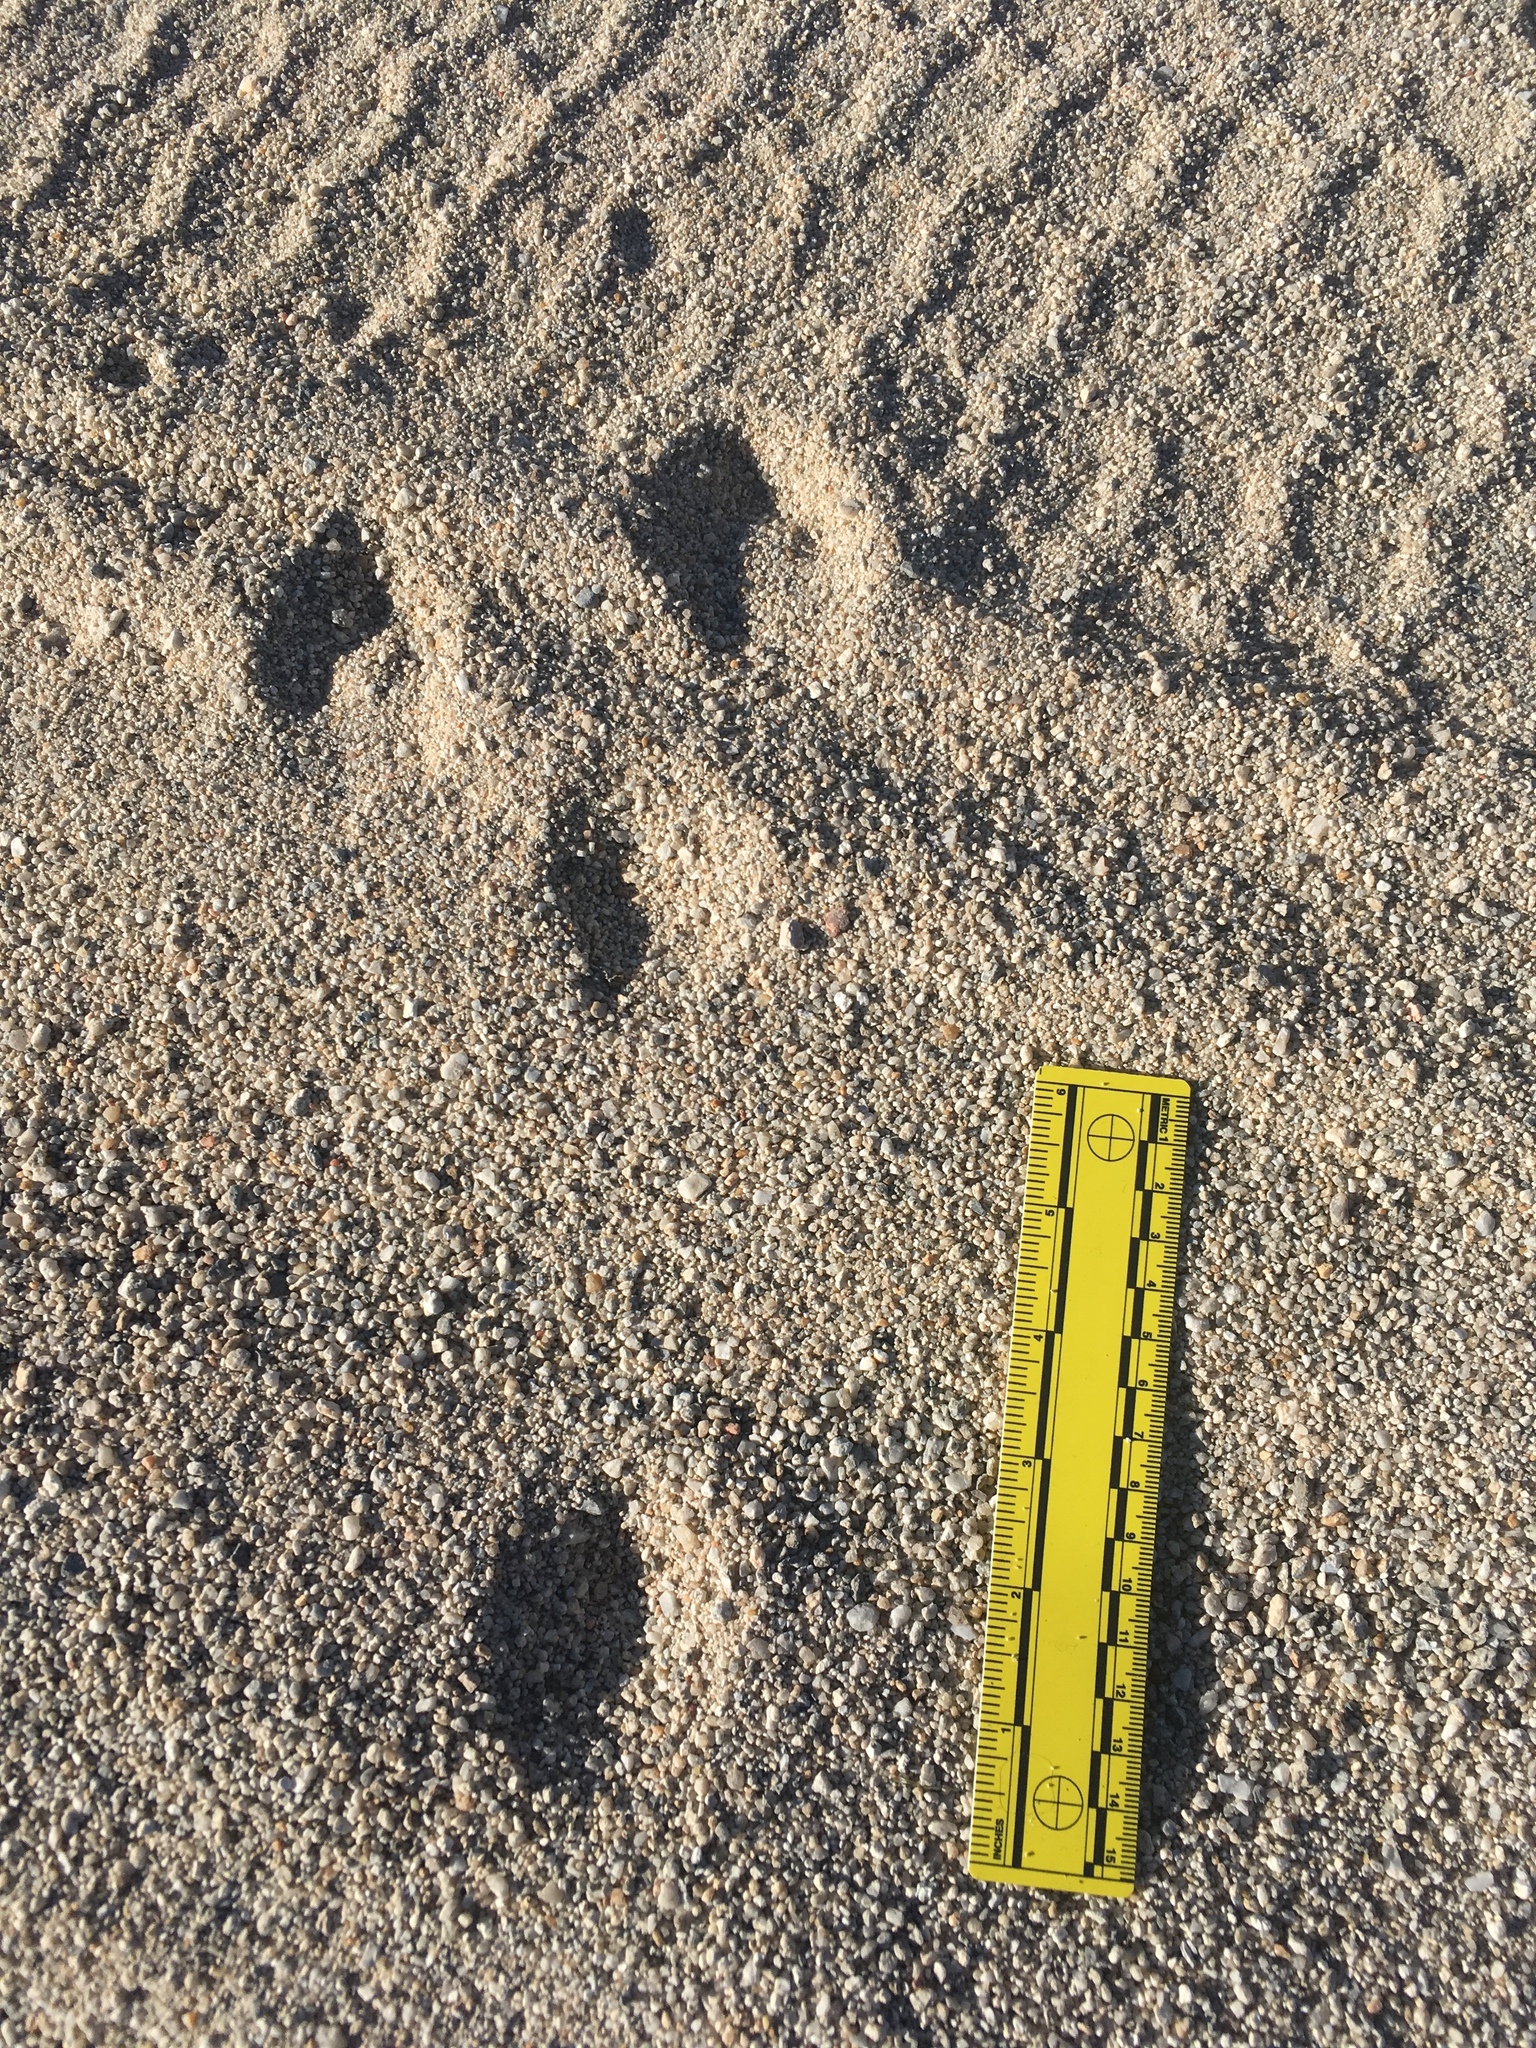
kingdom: Animalia
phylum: Chordata
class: Mammalia
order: Lagomorpha
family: Leporidae
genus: Lepus
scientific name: Lepus californicus
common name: Black-tailed jackrabbit
